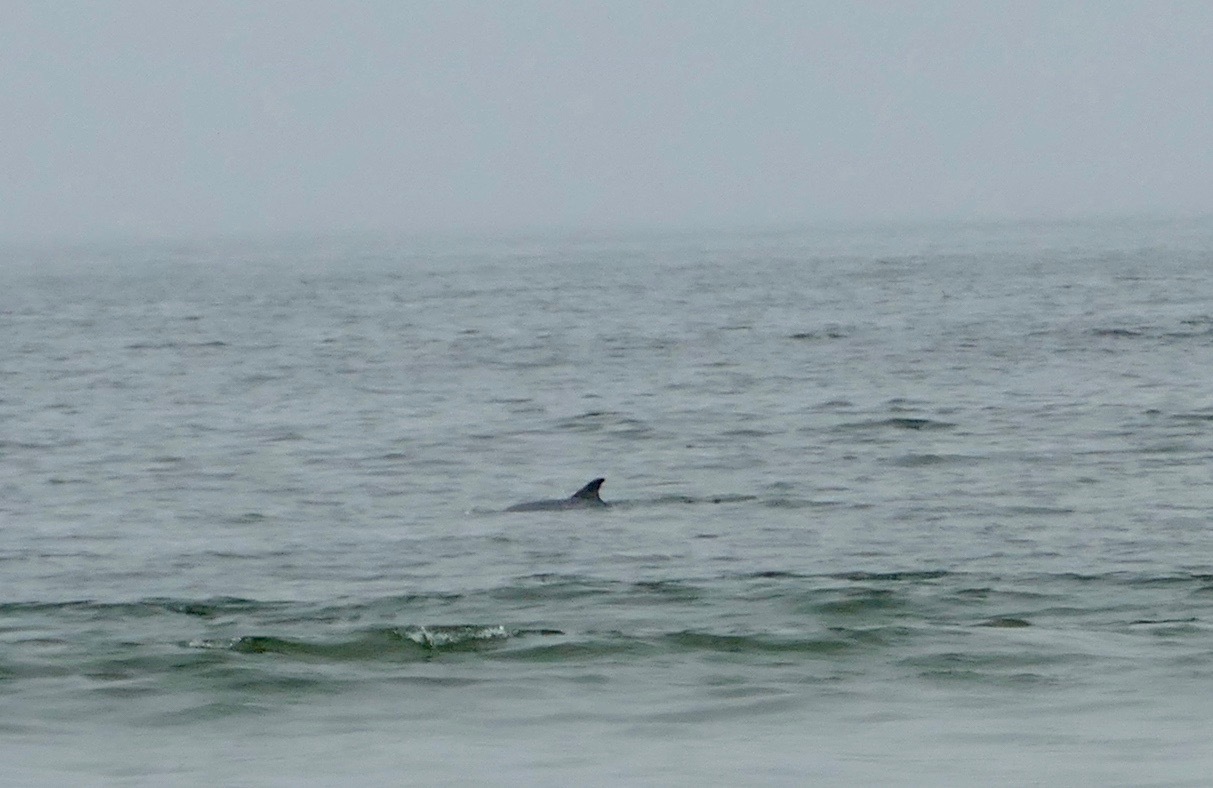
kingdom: Animalia
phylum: Chordata
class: Mammalia
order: Cetacea
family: Delphinidae
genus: Tursiops
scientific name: Tursiops truncatus
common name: Bottlenose dolphin
